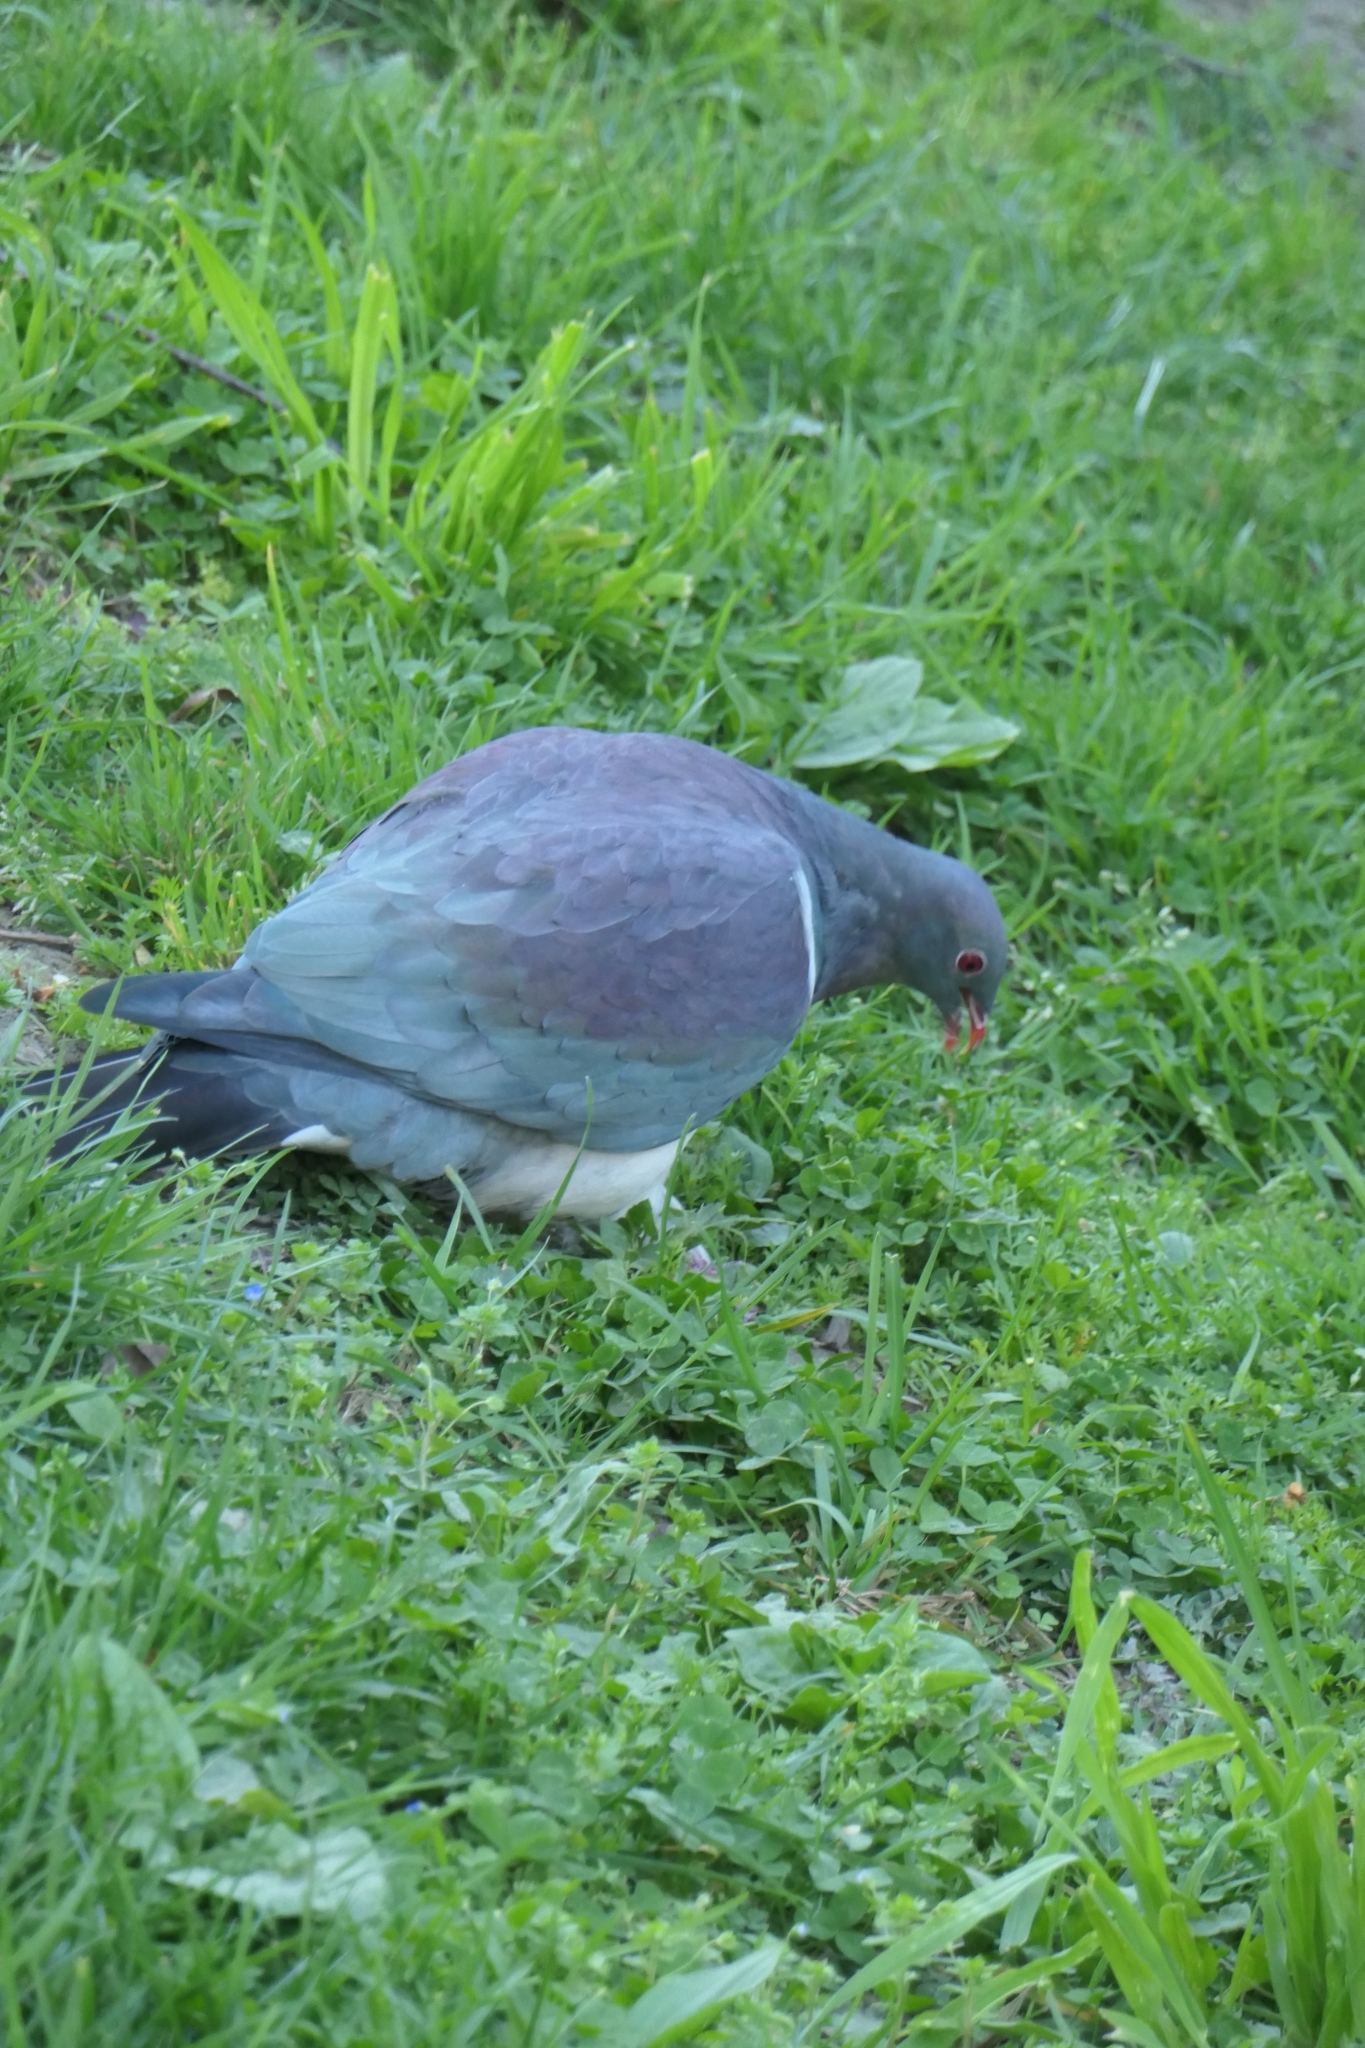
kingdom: Animalia
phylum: Chordata
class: Aves
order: Columbiformes
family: Columbidae
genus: Hemiphaga
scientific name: Hemiphaga novaeseelandiae
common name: New zealand pigeon
